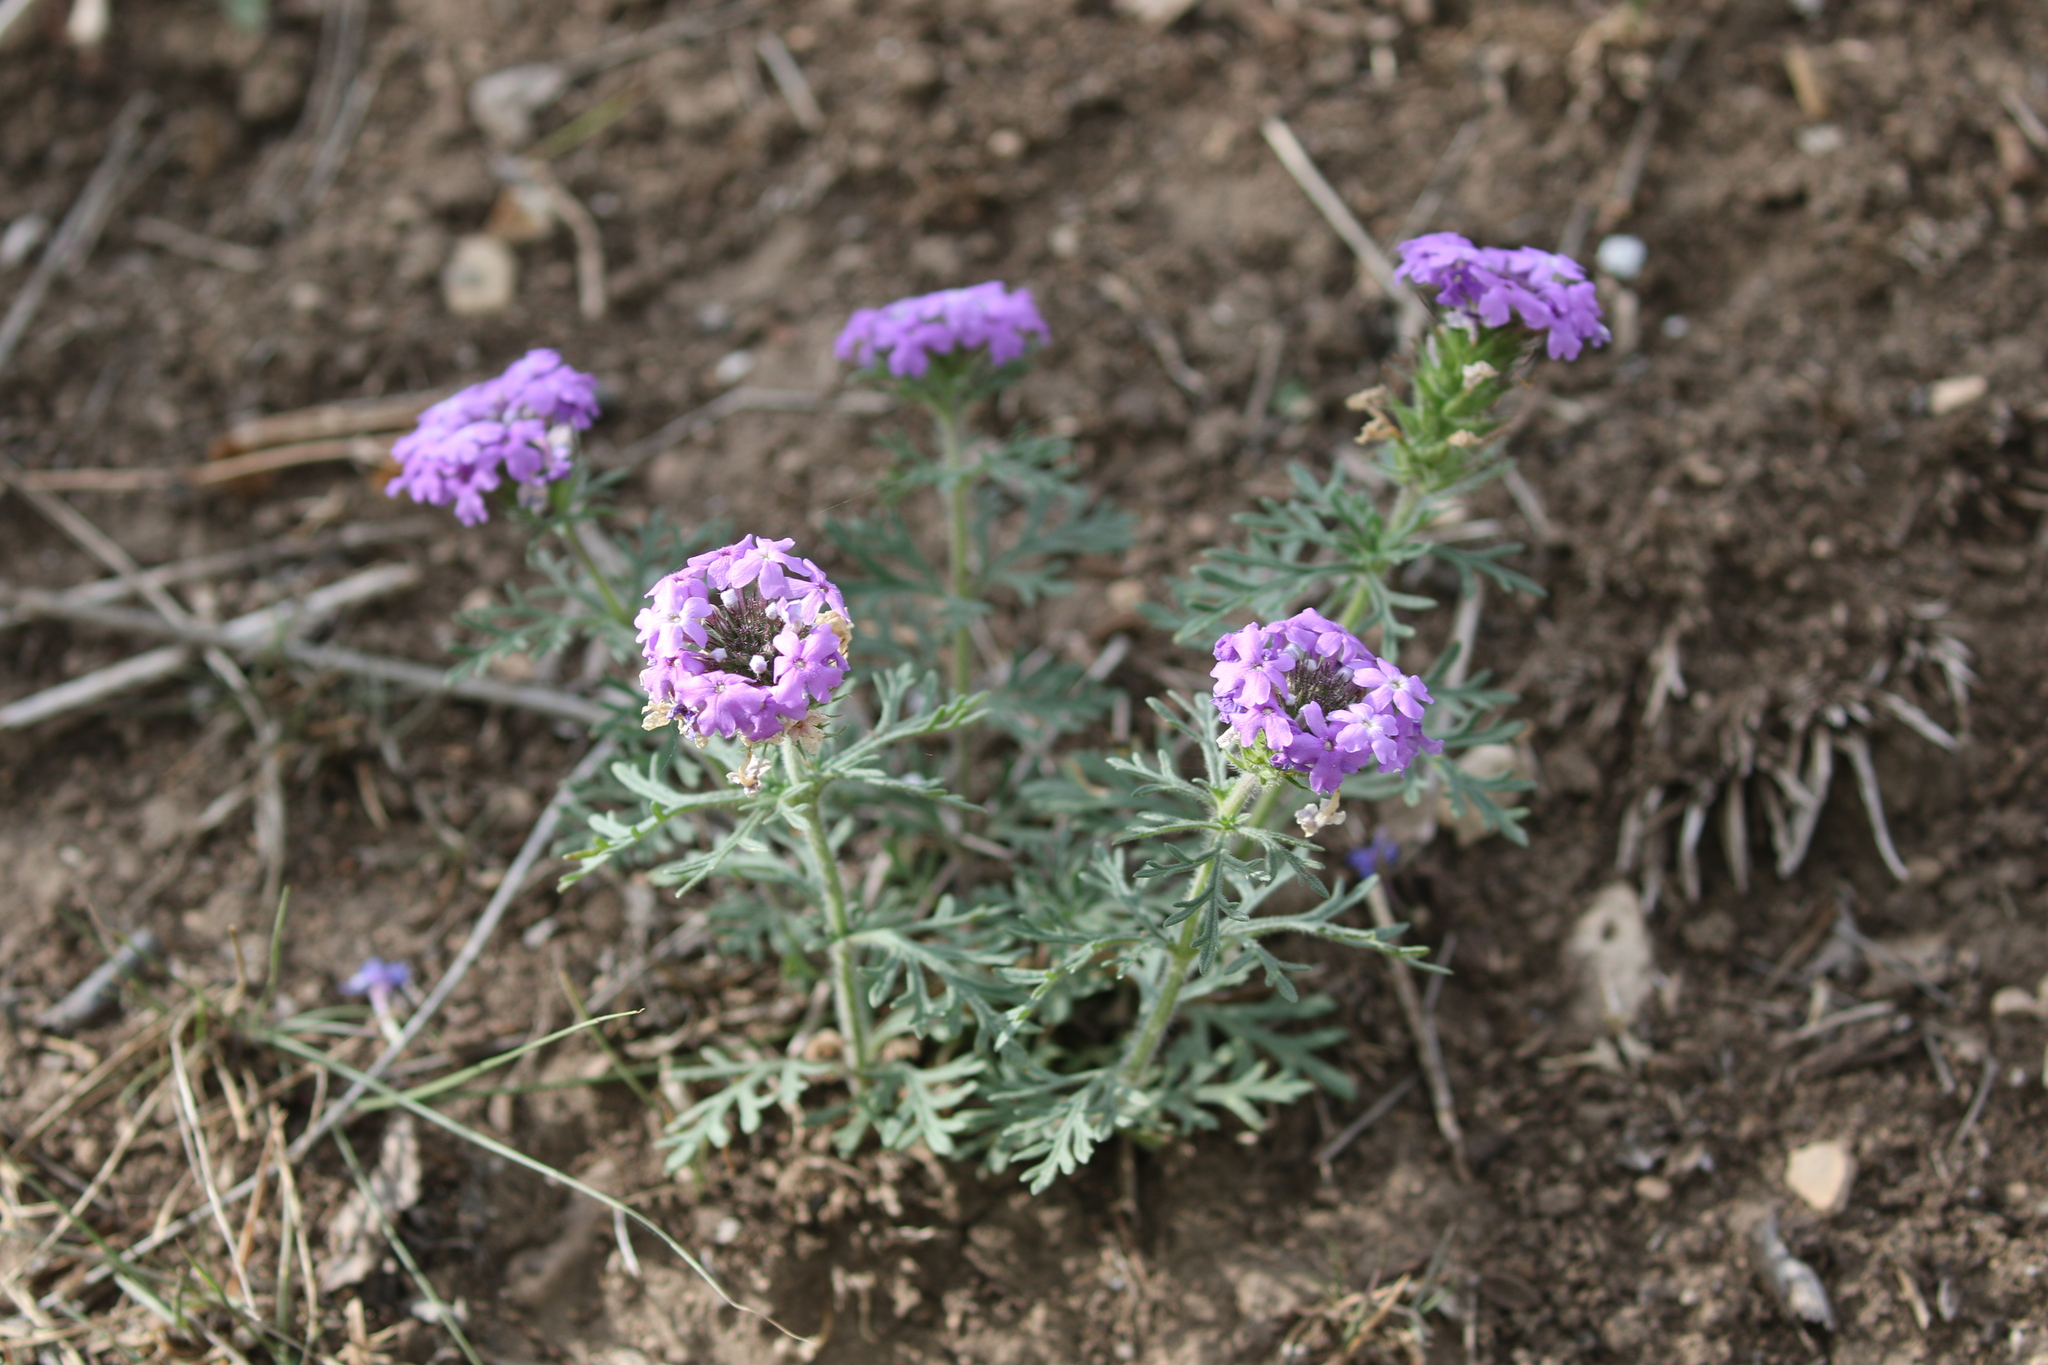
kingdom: Plantae
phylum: Tracheophyta
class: Magnoliopsida
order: Lamiales
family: Verbenaceae
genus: Verbena
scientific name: Verbena bipinnatifida
